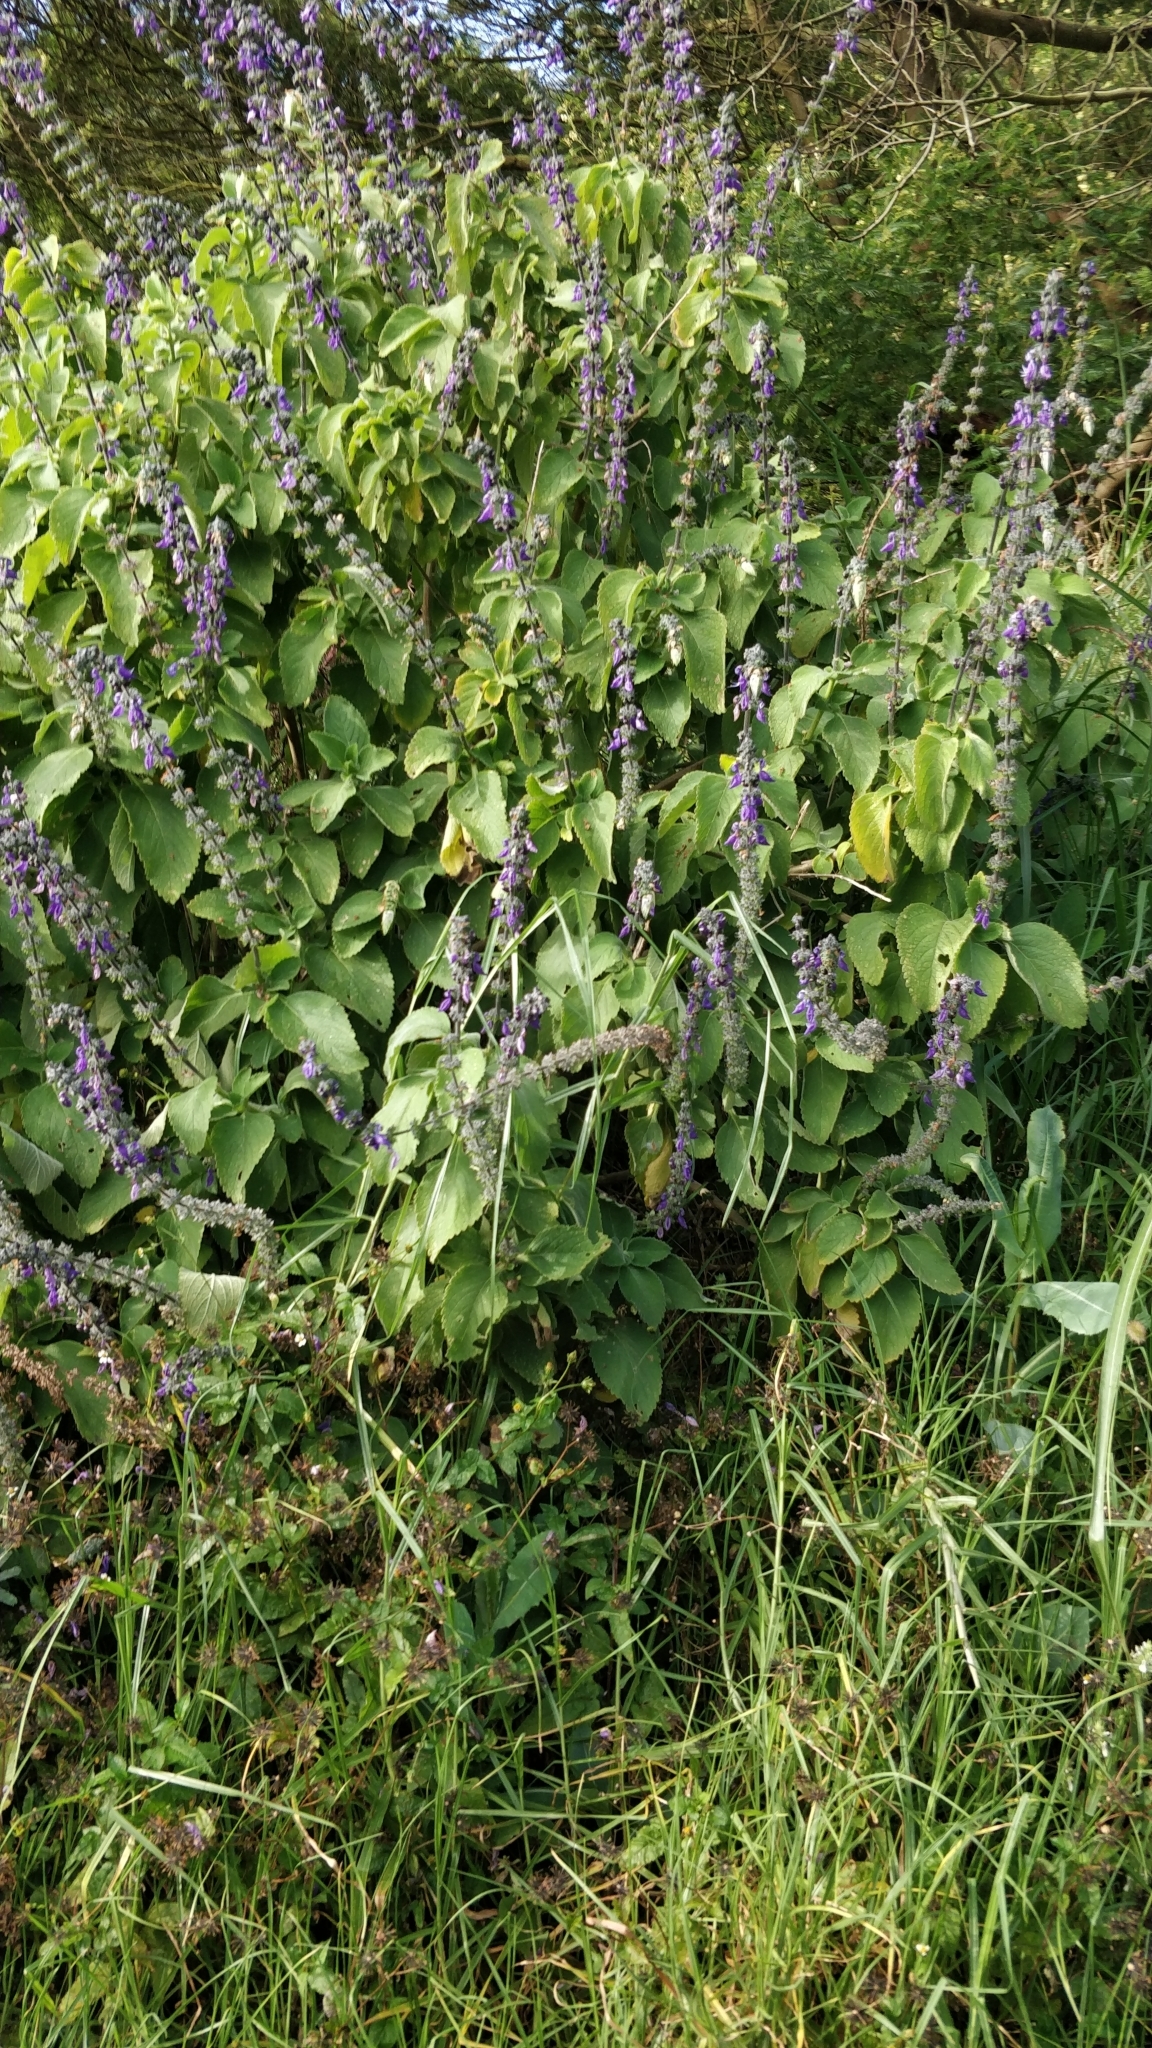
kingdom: Plantae
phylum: Tracheophyta
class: Magnoliopsida
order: Lamiales
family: Lamiaceae
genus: Coleus
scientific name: Coleus barbatus
